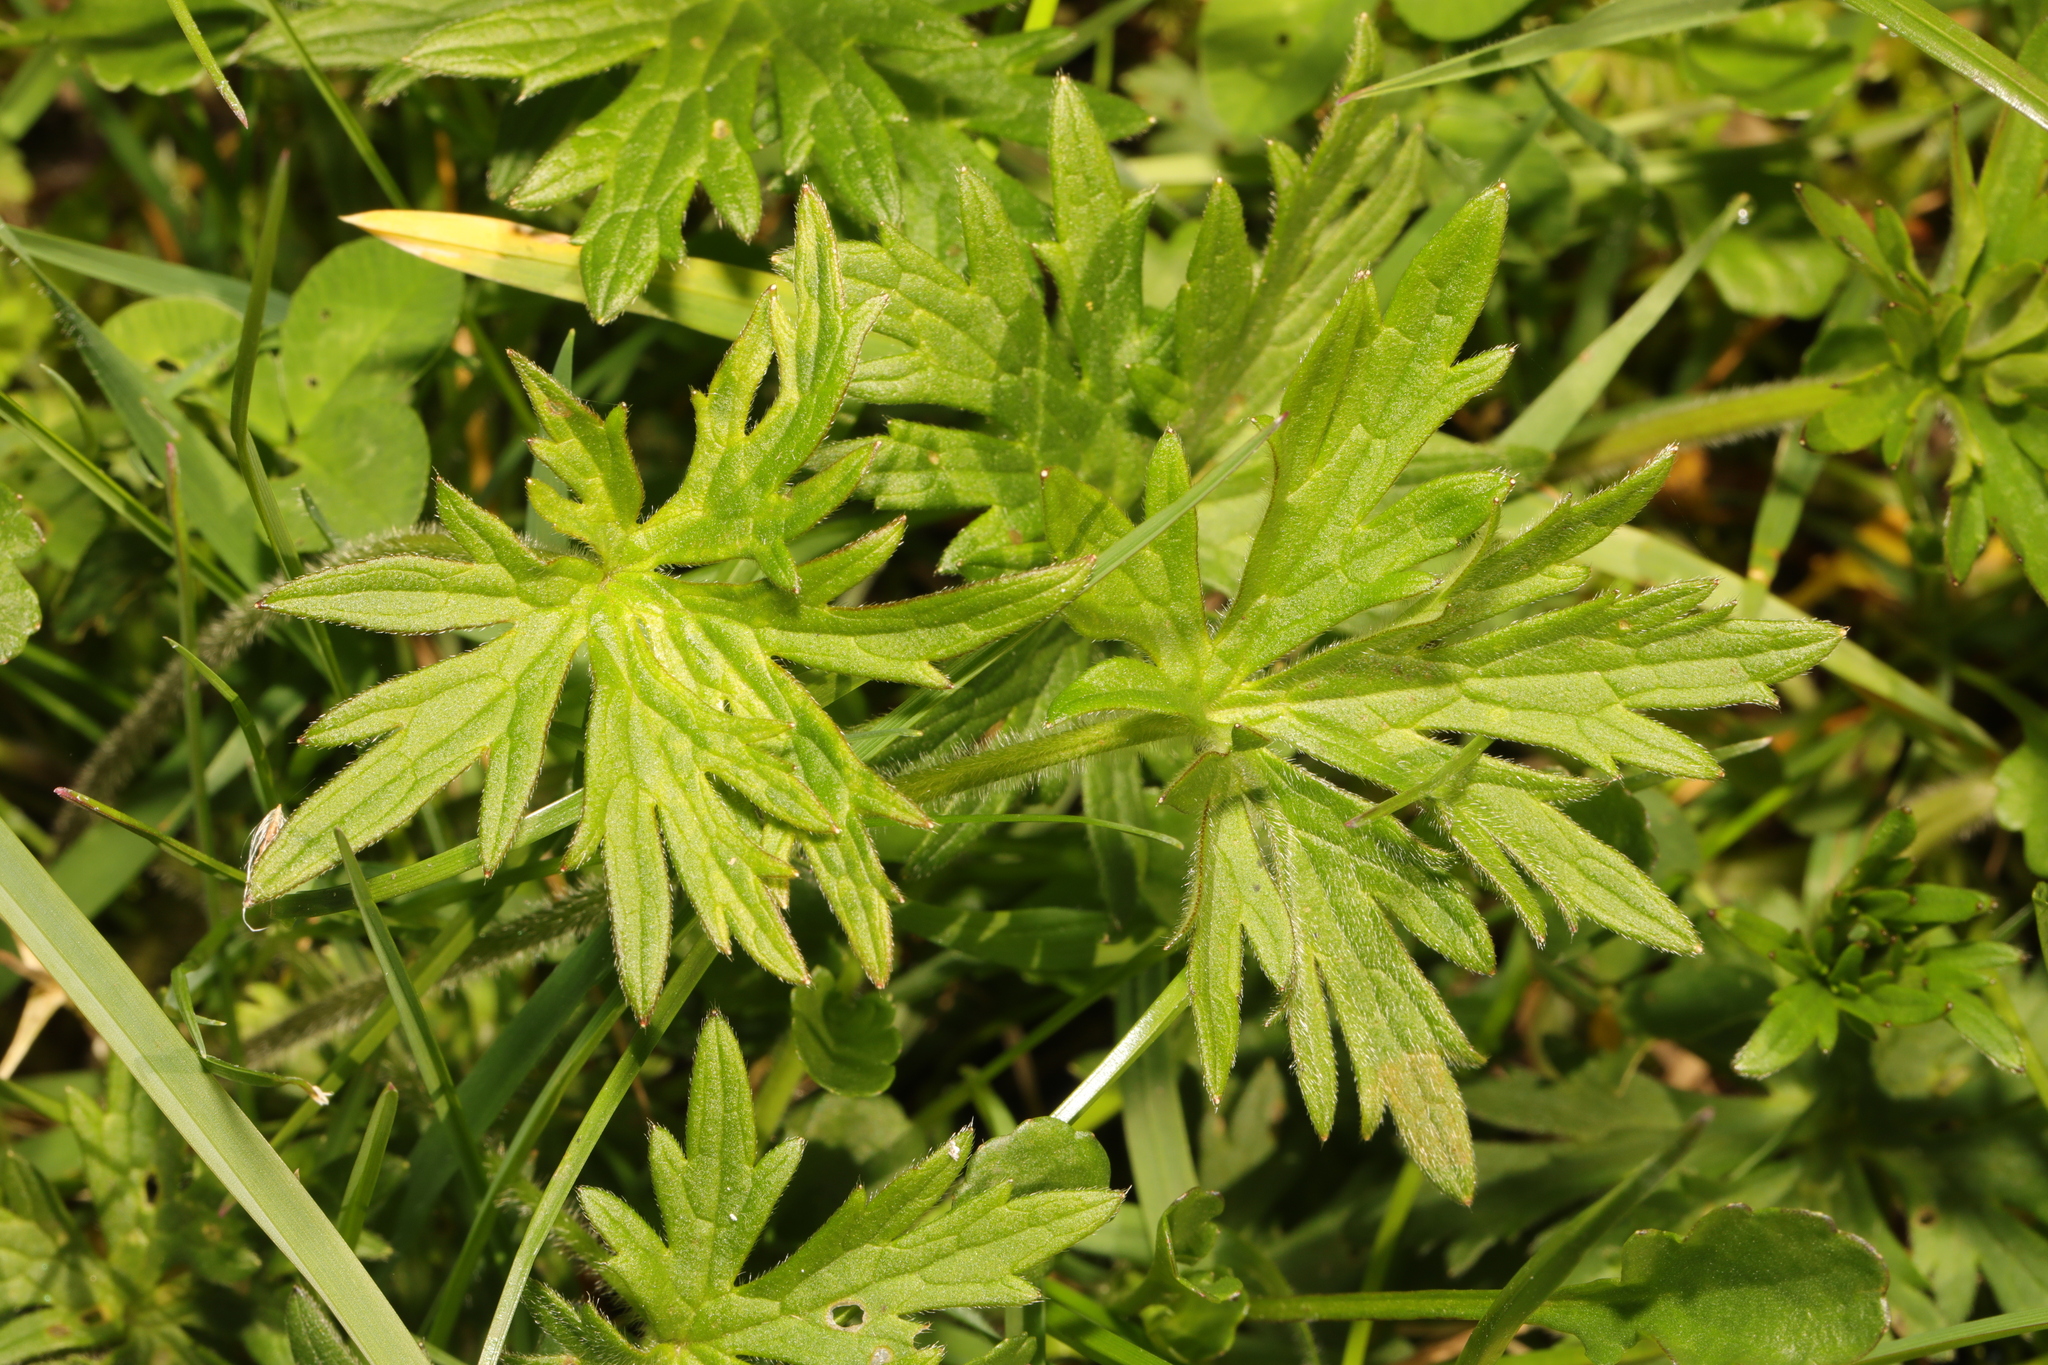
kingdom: Plantae
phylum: Tracheophyta
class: Magnoliopsida
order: Ranunculales
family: Ranunculaceae
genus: Ranunculus
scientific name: Ranunculus acris
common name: Meadow buttercup
